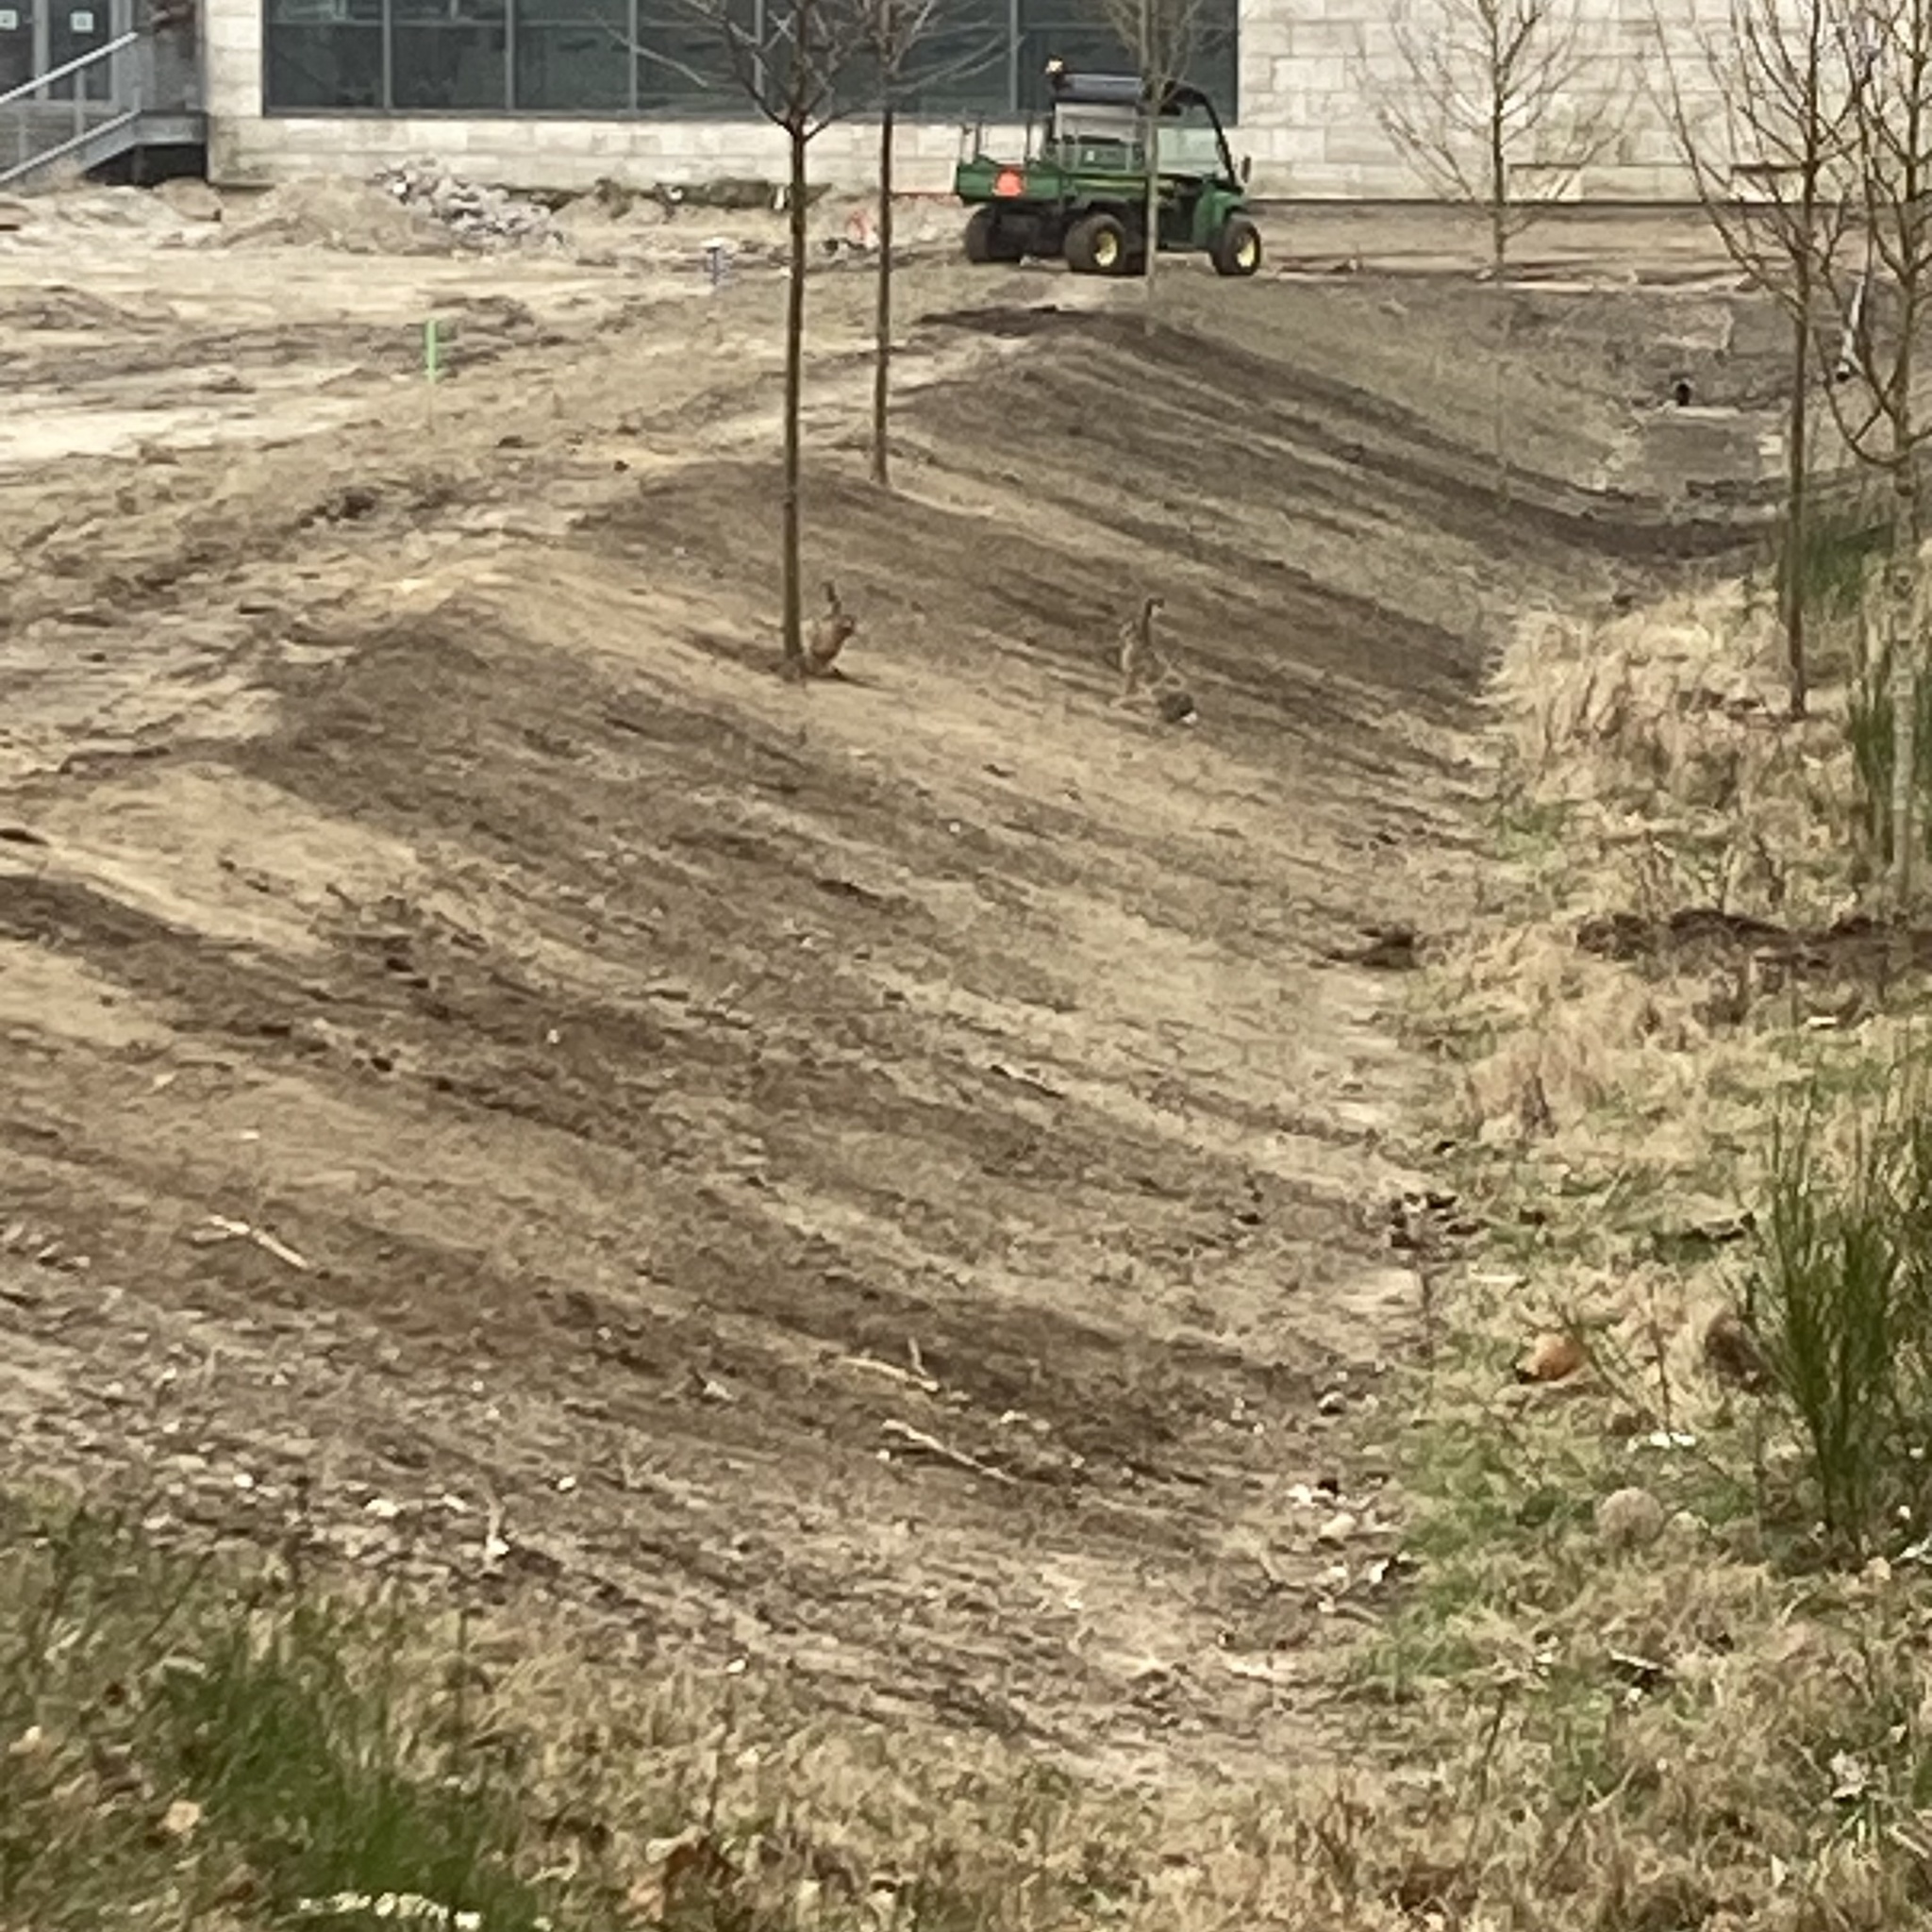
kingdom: Animalia
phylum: Chordata
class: Mammalia
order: Lagomorpha
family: Leporidae
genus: Lepus
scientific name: Lepus europaeus
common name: European hare
